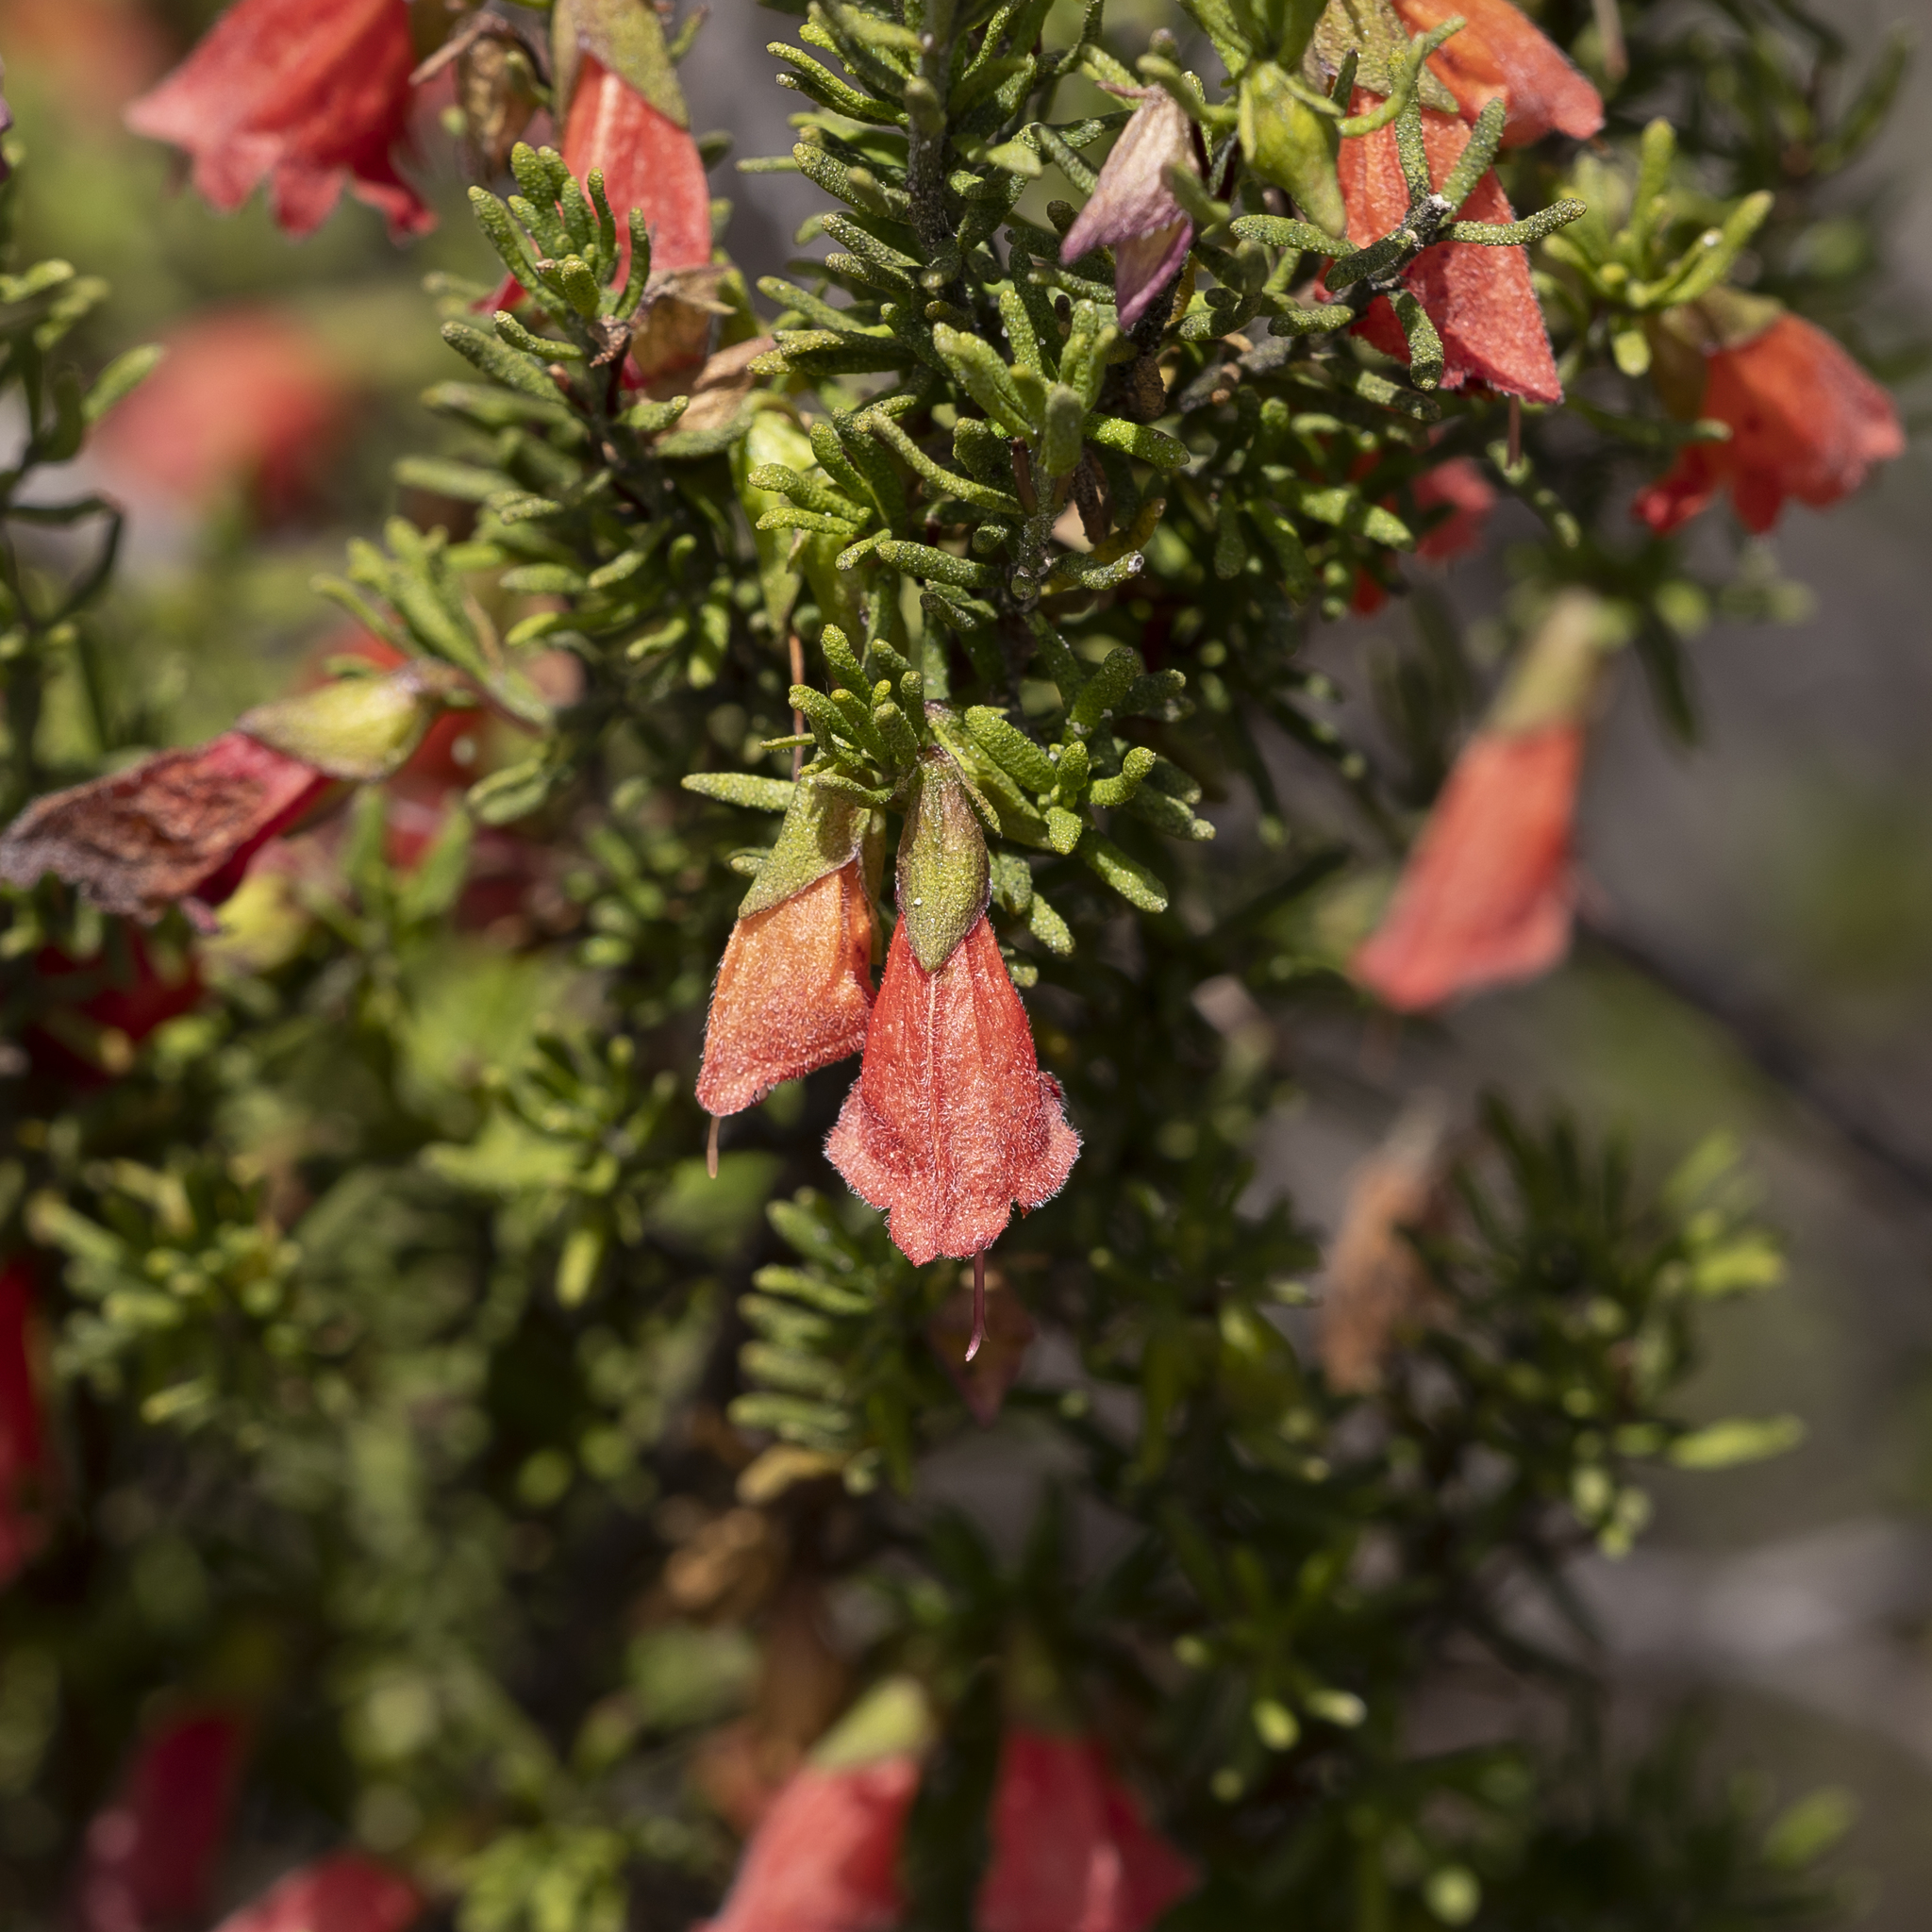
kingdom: Plantae
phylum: Tracheophyta
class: Magnoliopsida
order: Lamiales
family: Lamiaceae
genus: Prostanthera
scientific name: Prostanthera aspalathoides
